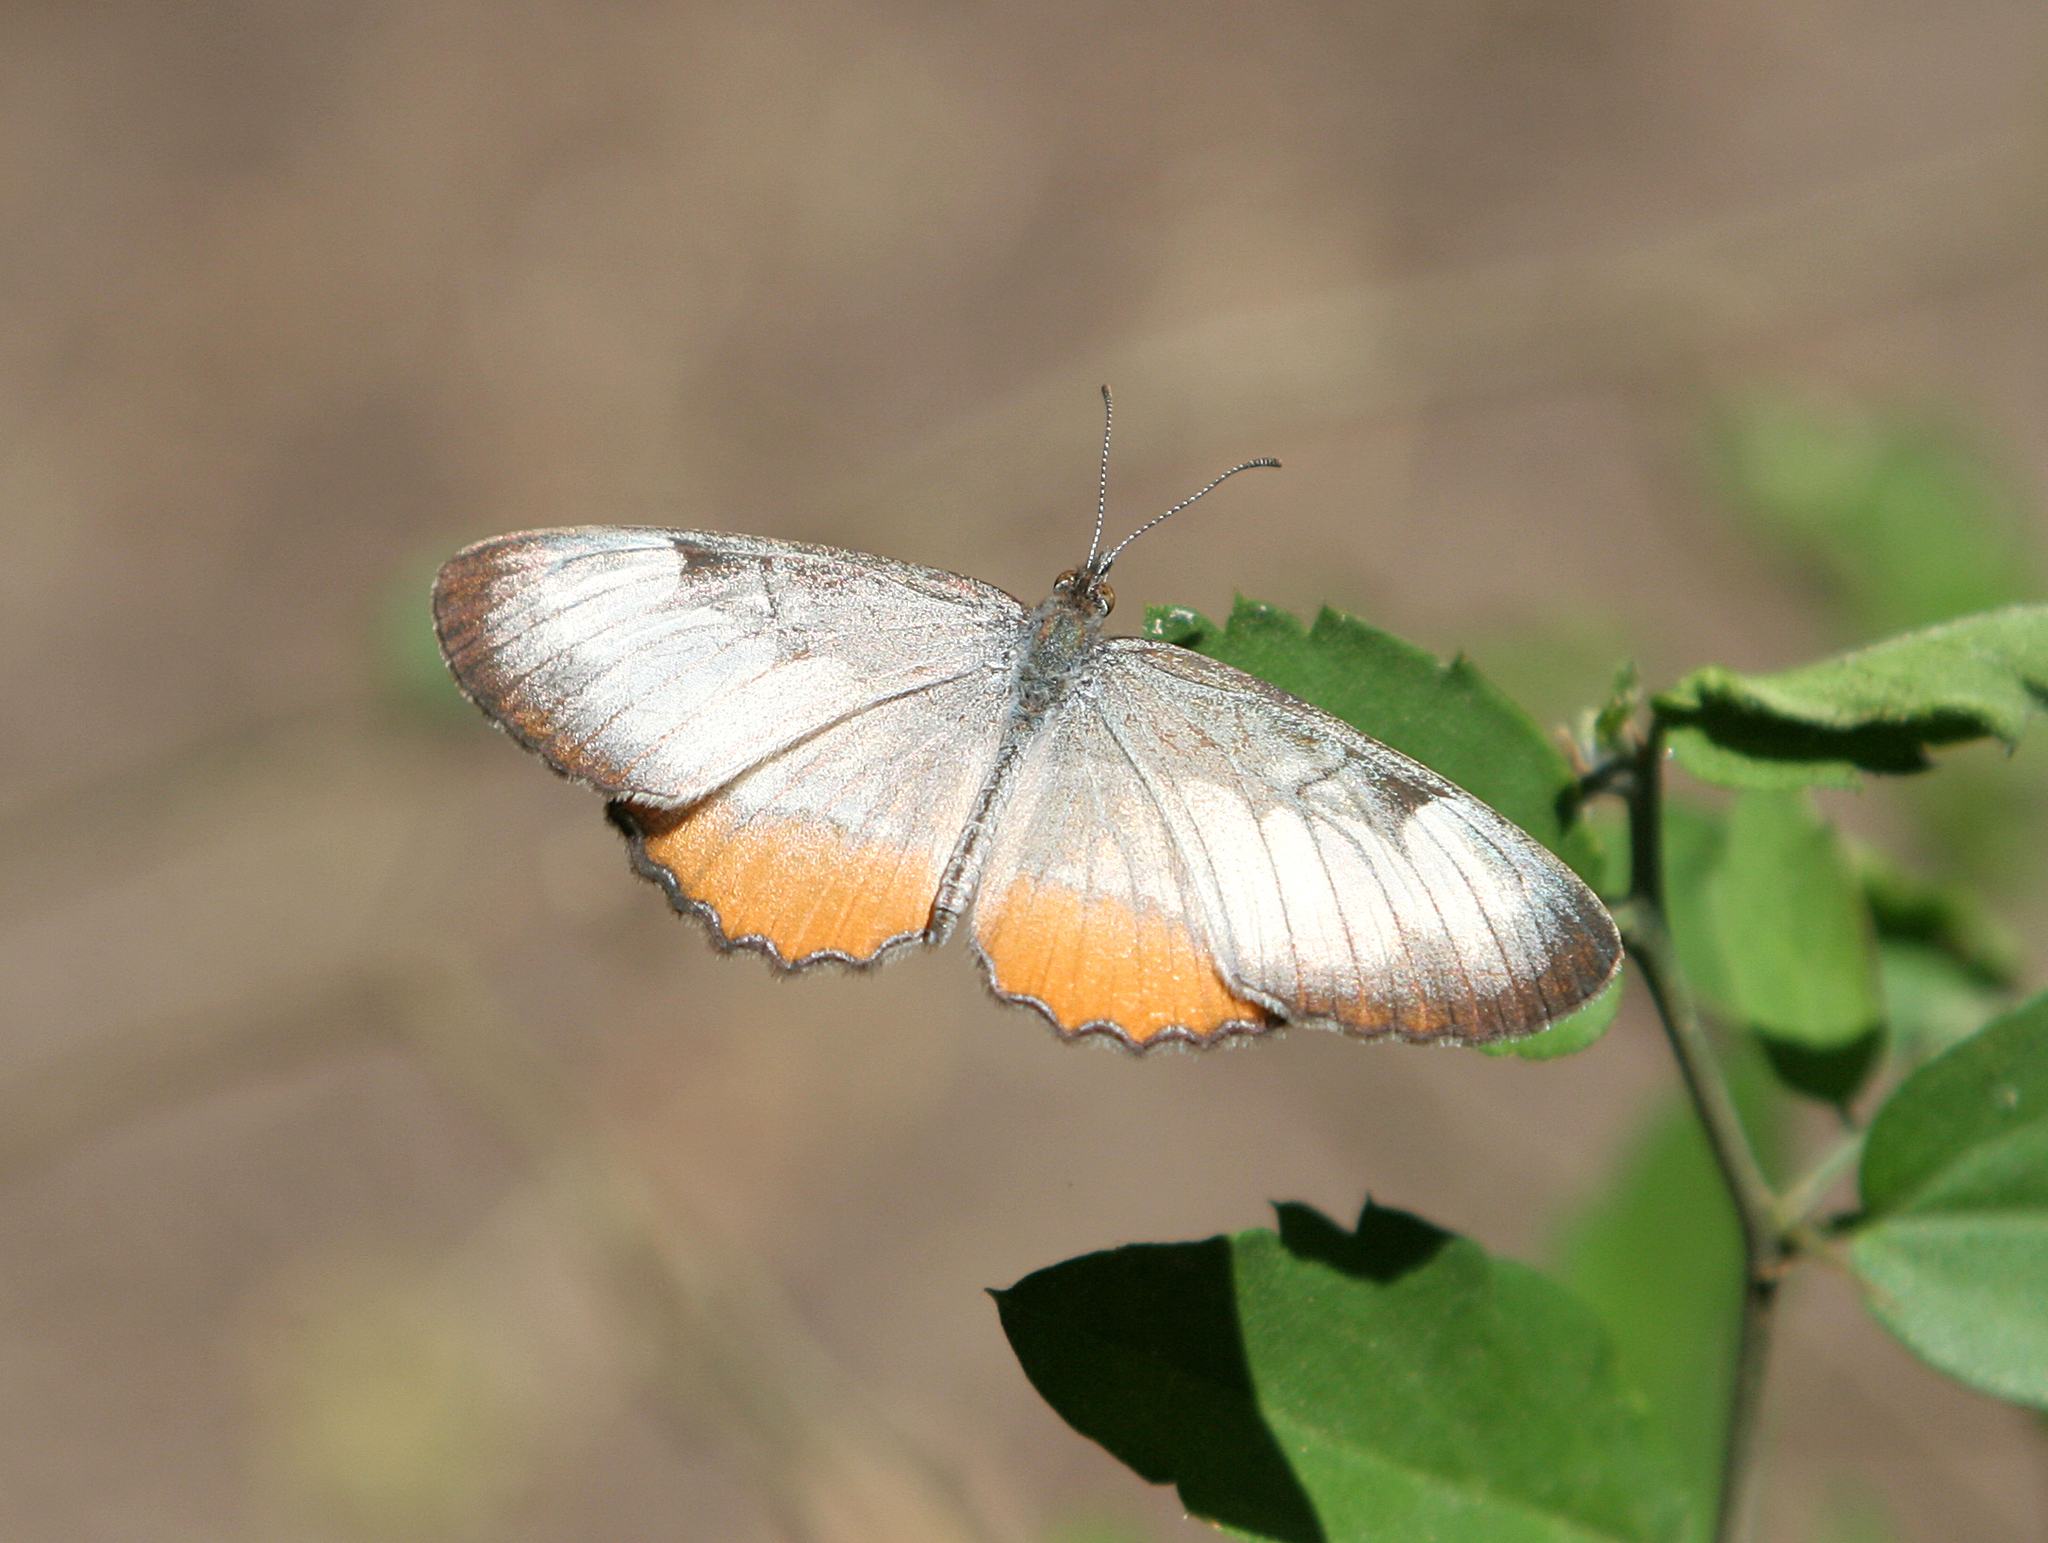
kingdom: Animalia
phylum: Arthropoda
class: Insecta
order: Lepidoptera
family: Nymphalidae
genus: Mestra
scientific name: Mestra amymone
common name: Common mestra
